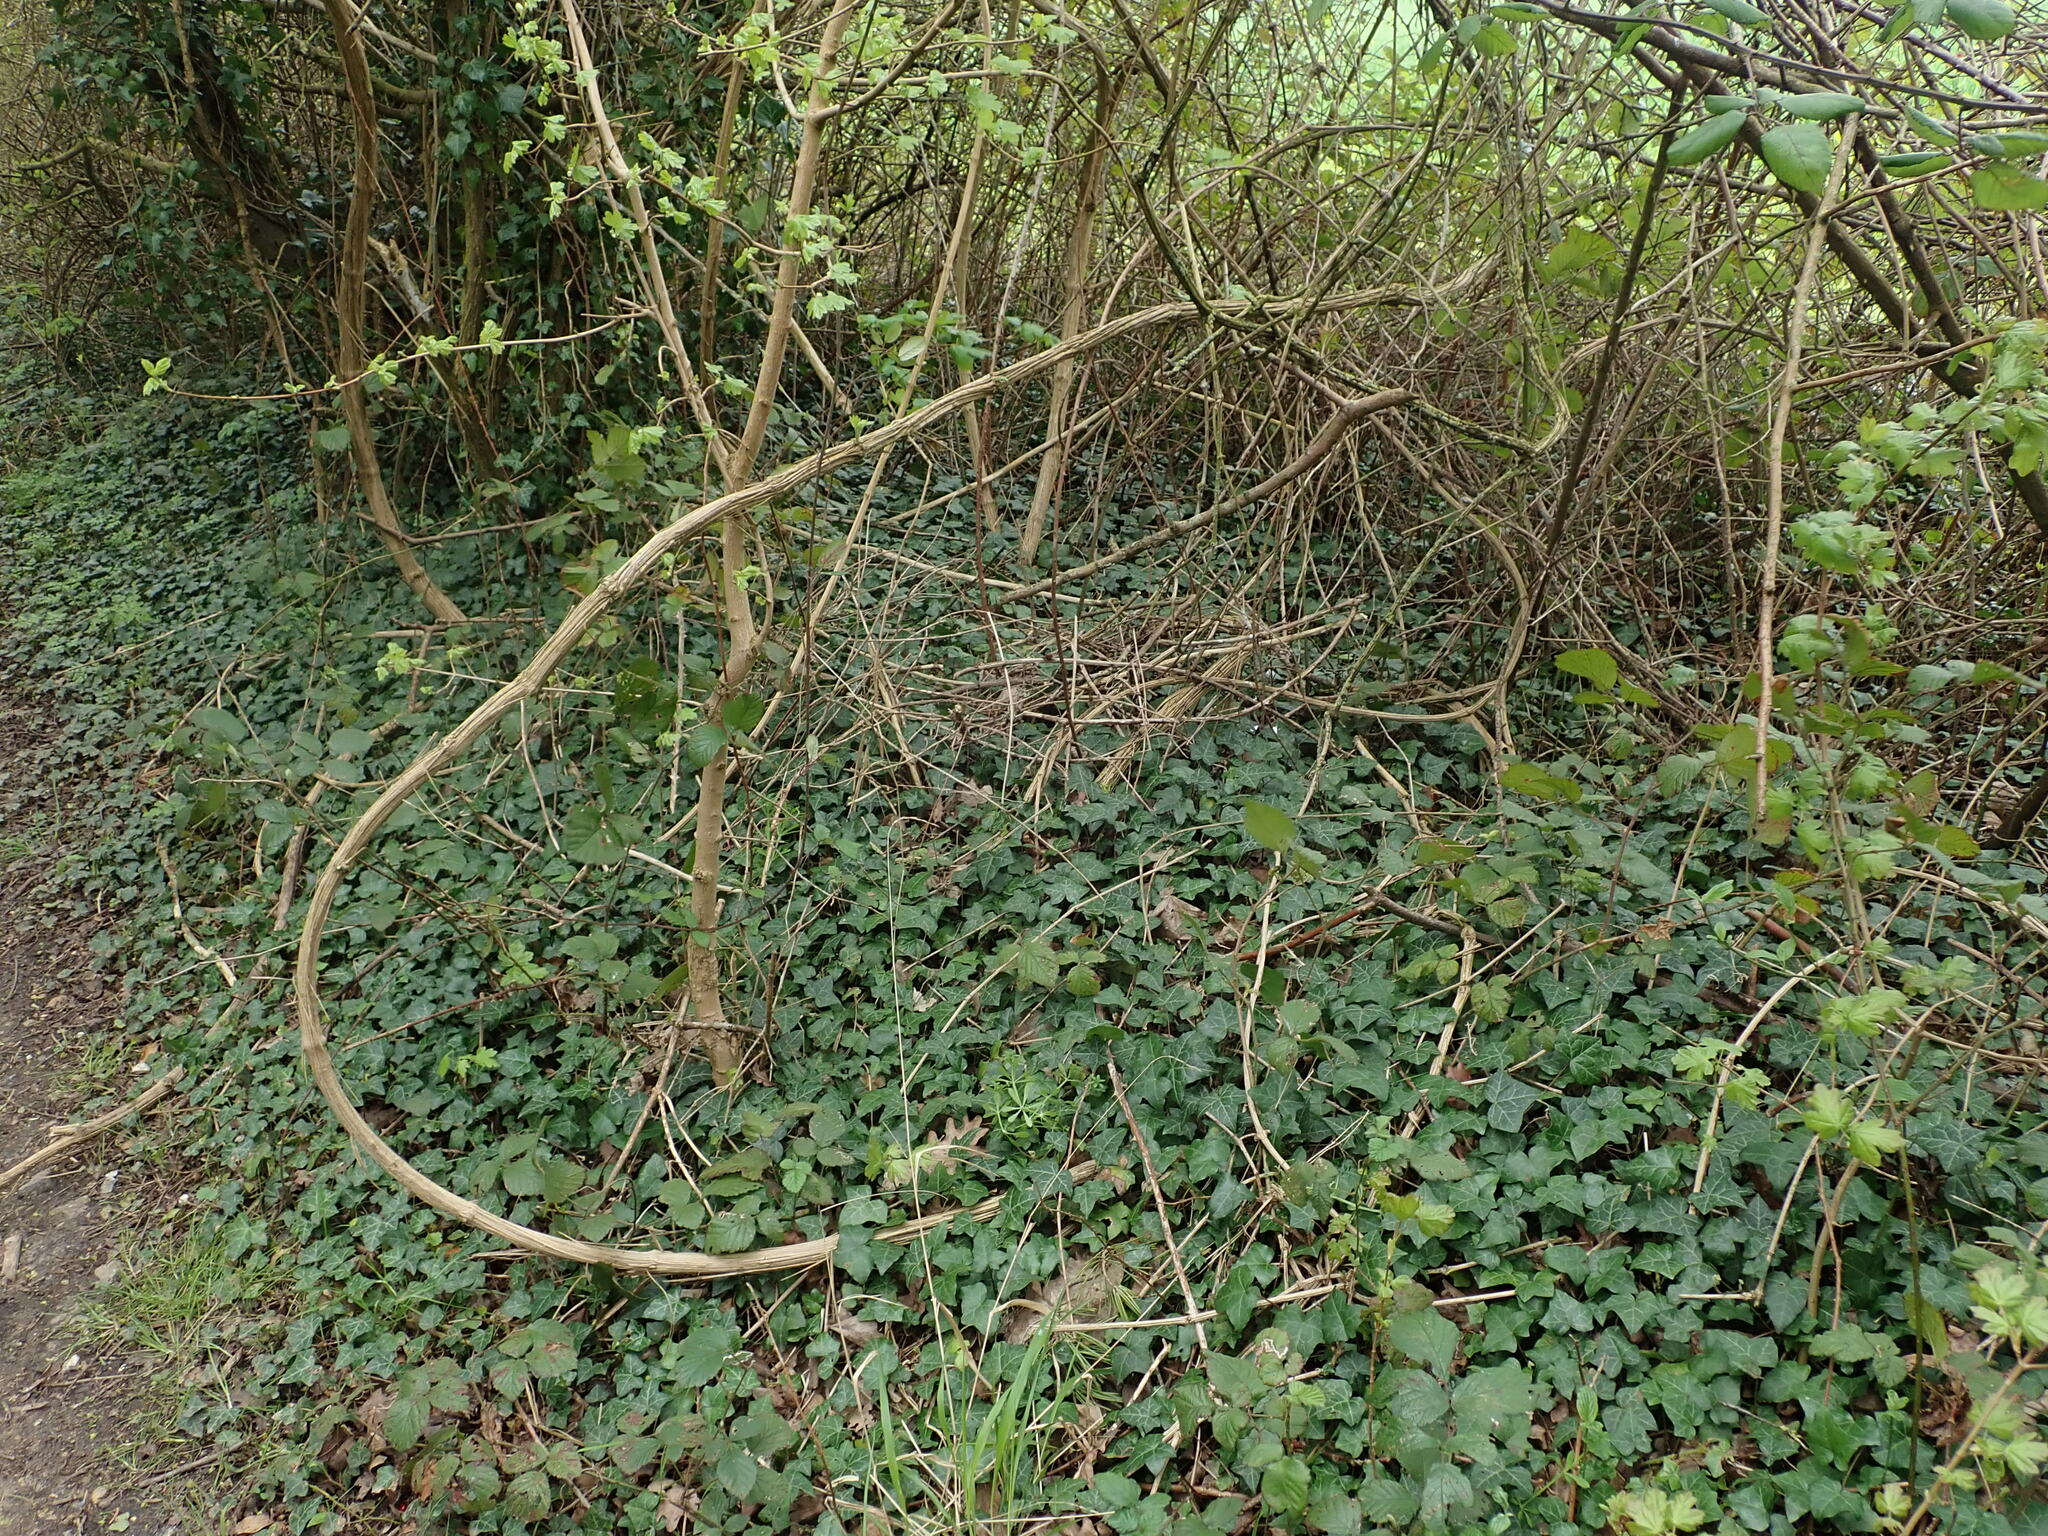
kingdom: Plantae
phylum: Tracheophyta
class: Magnoliopsida
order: Ranunculales
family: Ranunculaceae
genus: Clematis
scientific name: Clematis vitalba
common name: Evergreen clematis
